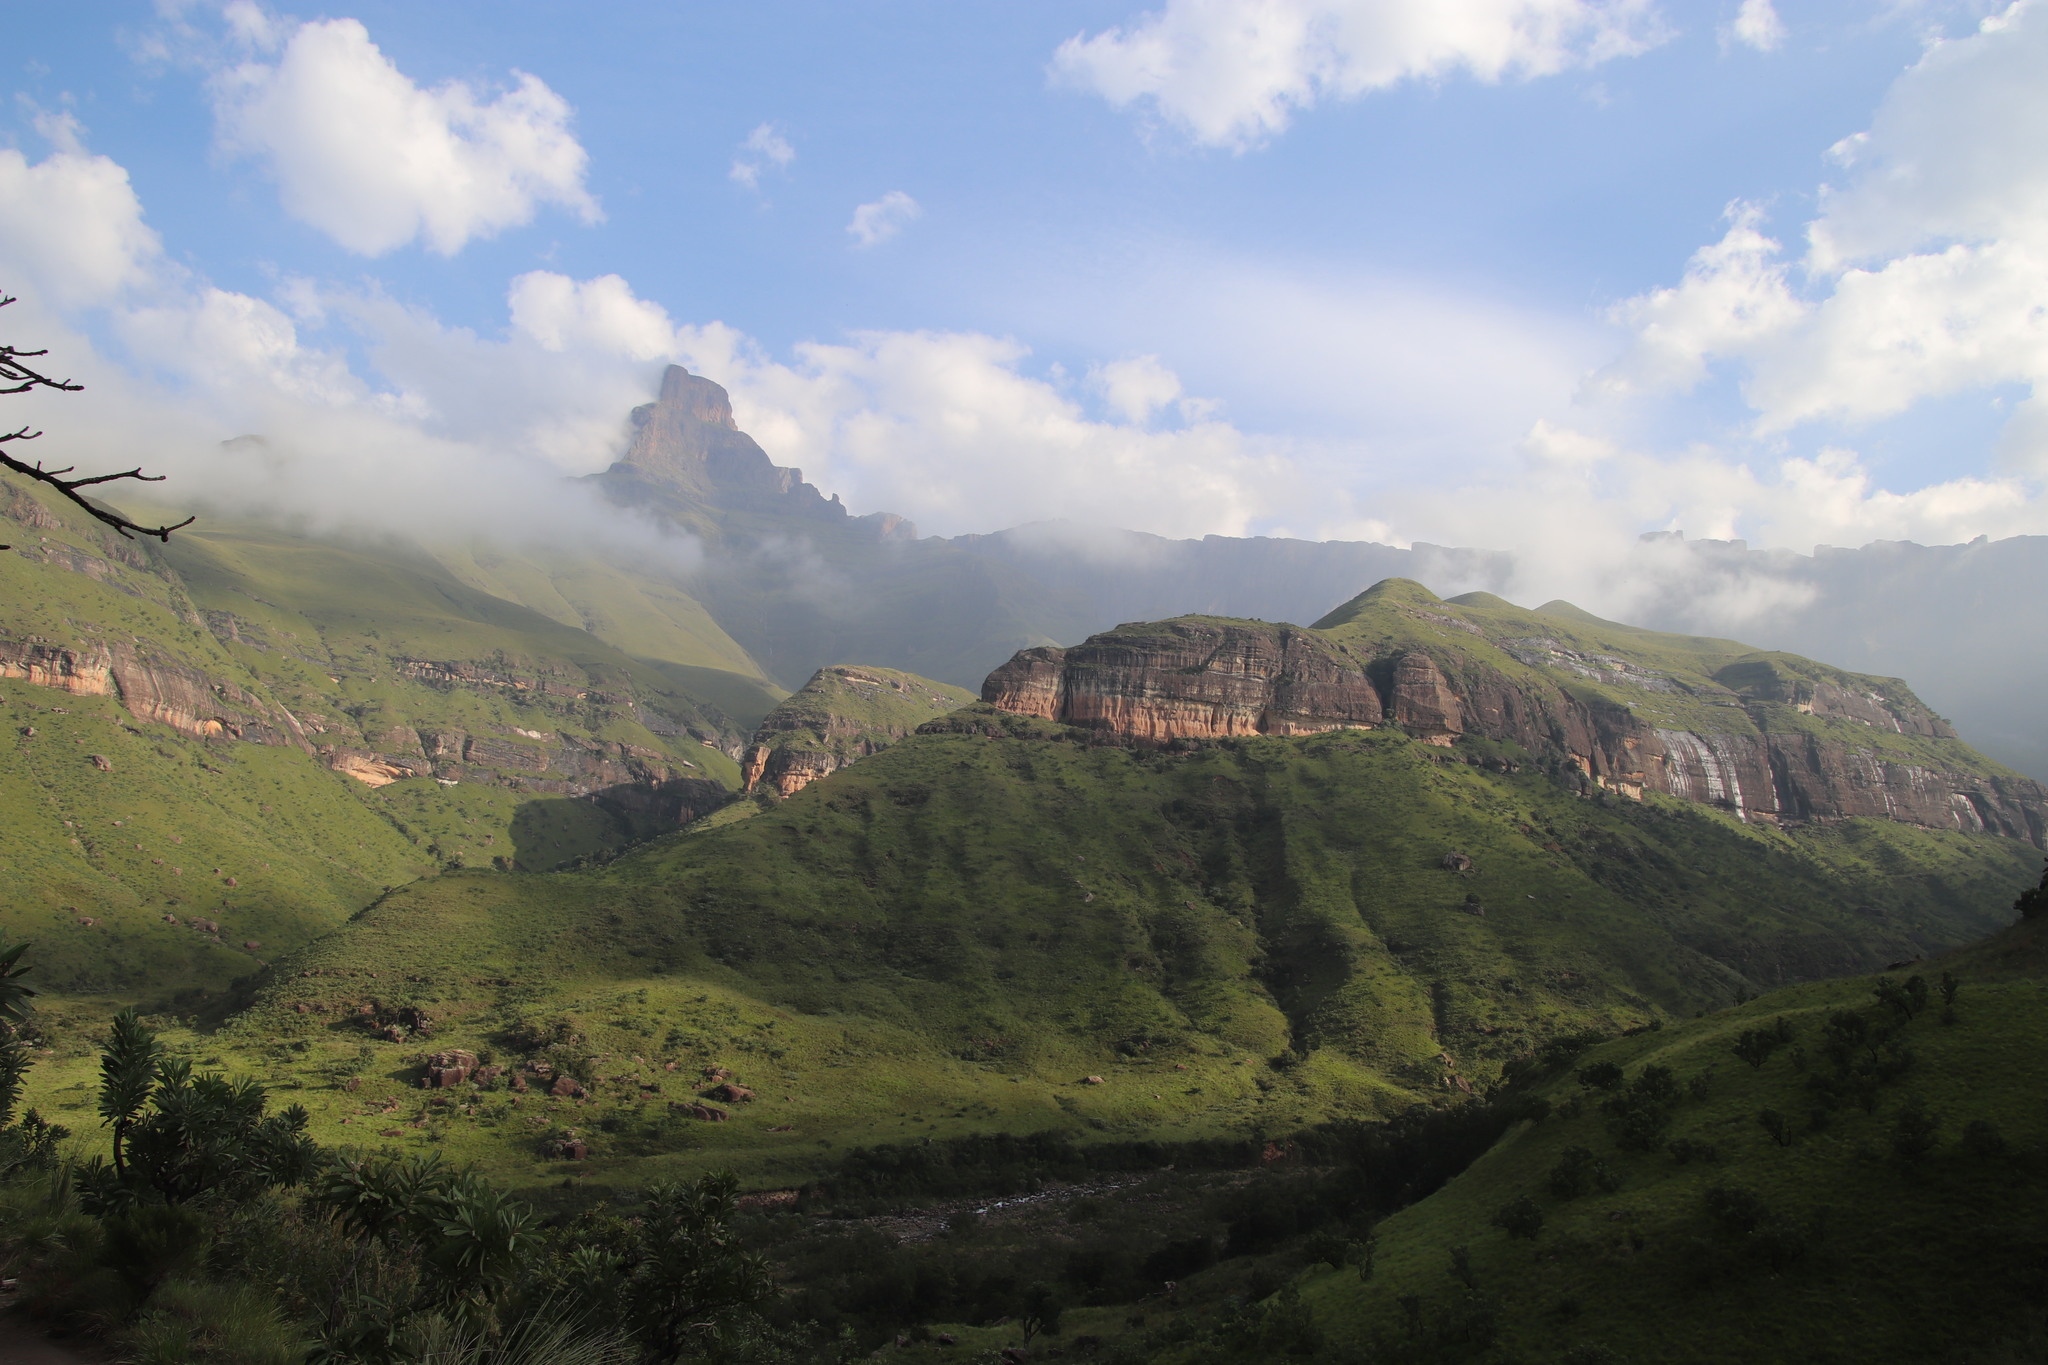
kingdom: Plantae
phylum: Tracheophyta
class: Magnoliopsida
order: Proteales
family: Proteaceae
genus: Protea
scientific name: Protea caffra
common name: Common sugarbush
